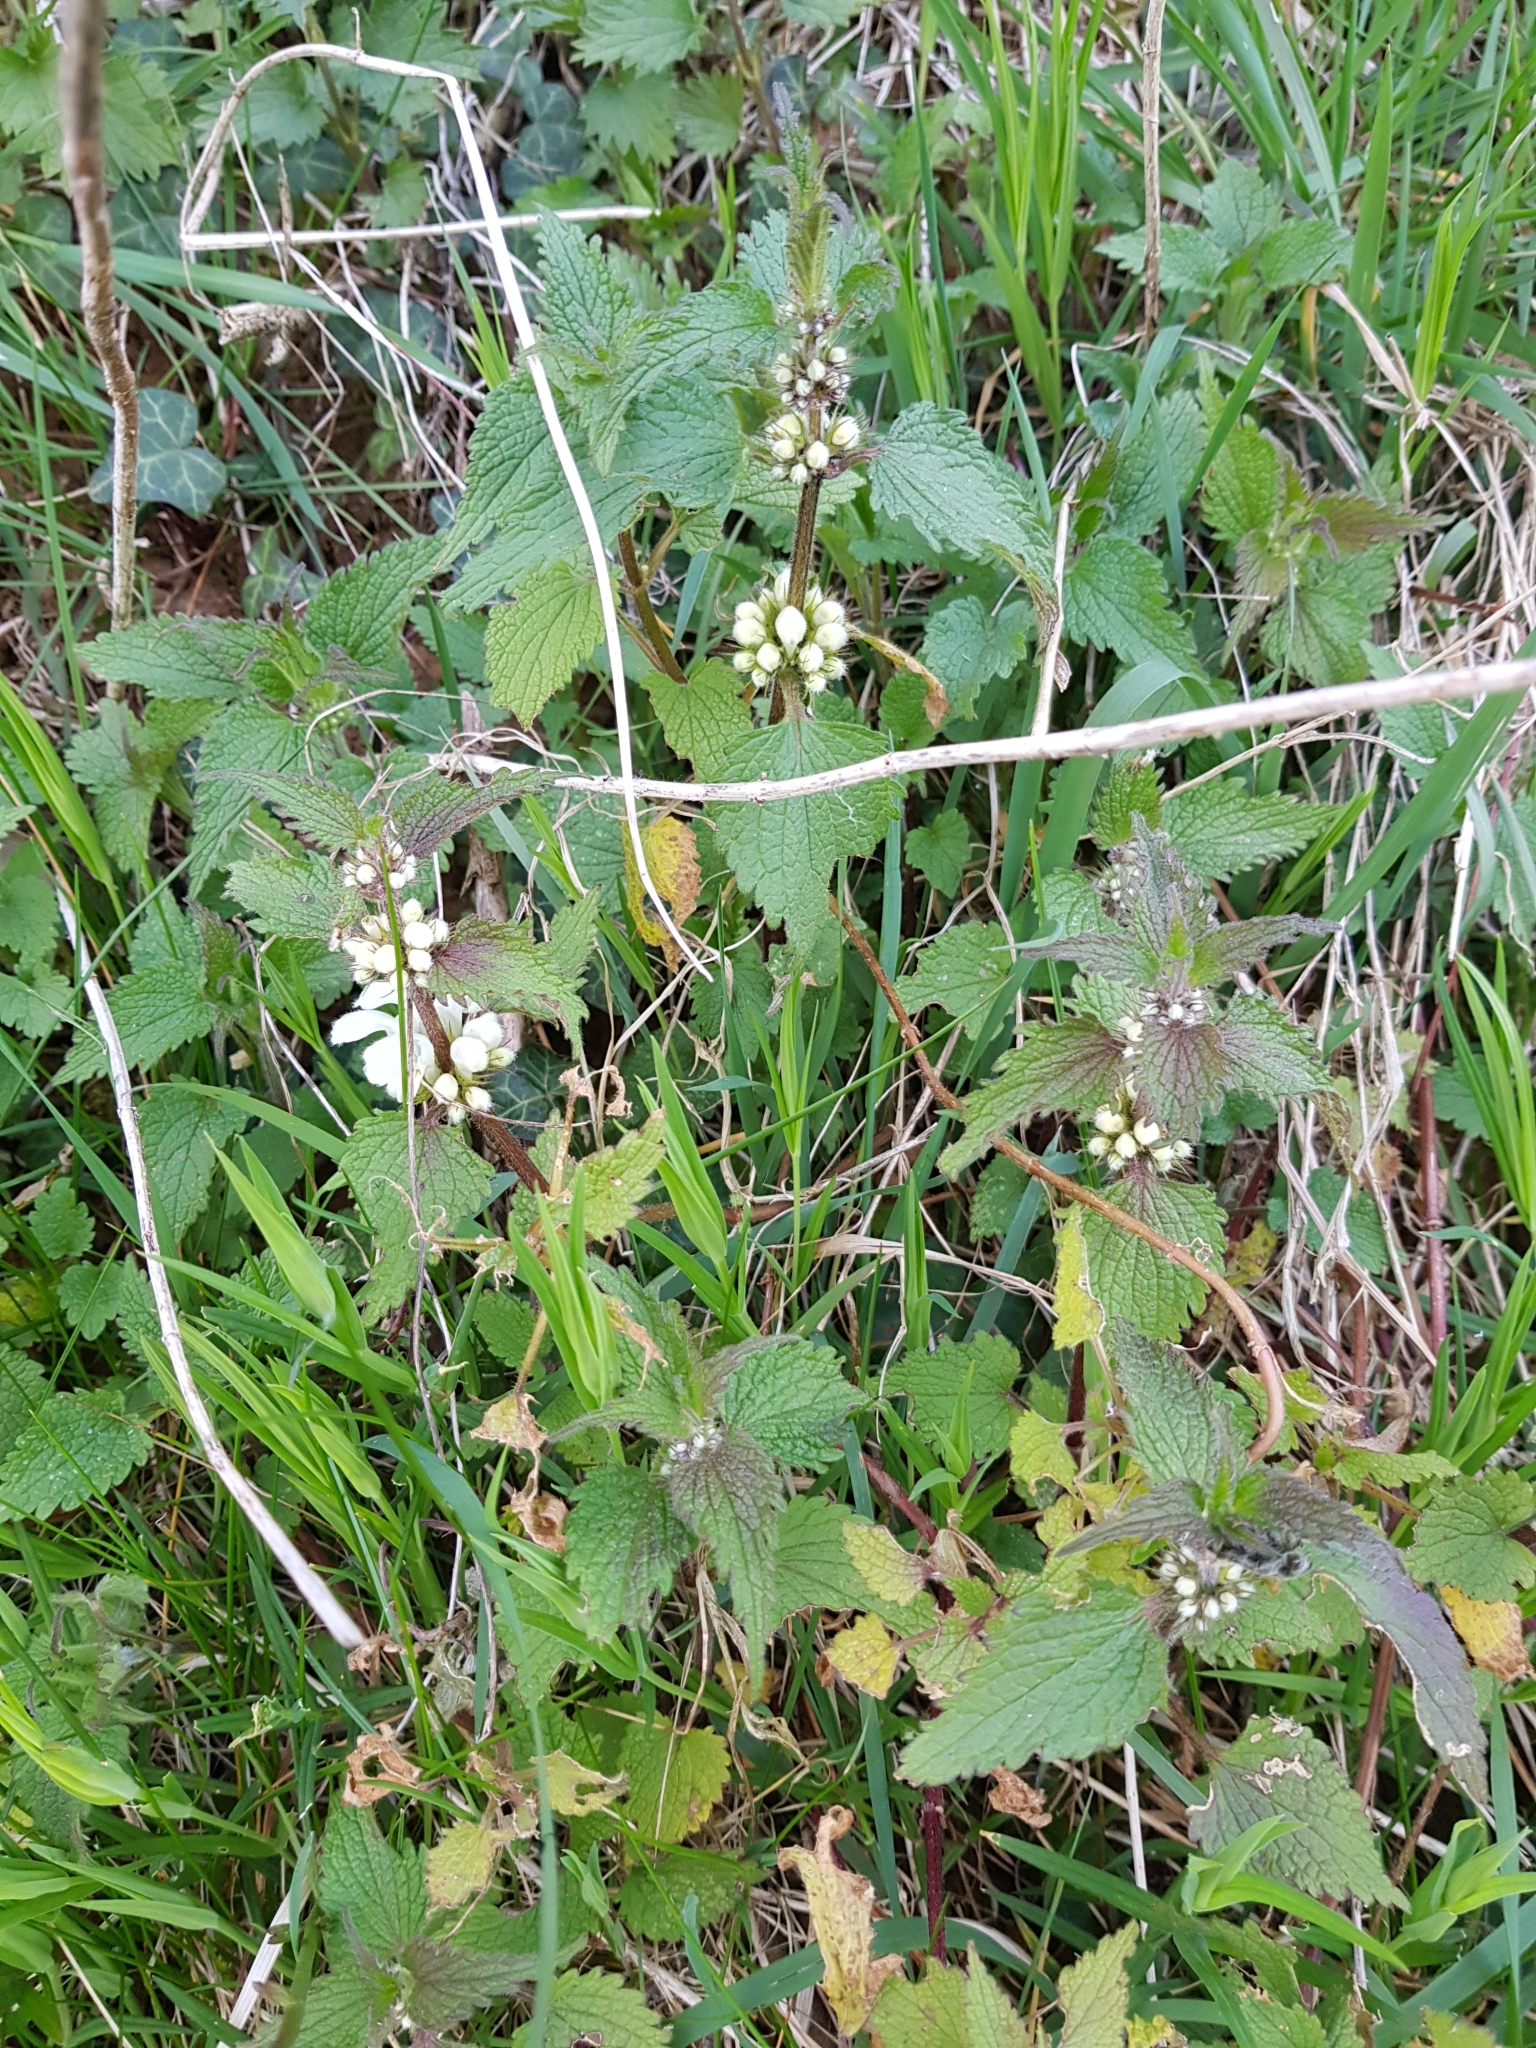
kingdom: Plantae
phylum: Tracheophyta
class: Magnoliopsida
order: Lamiales
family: Lamiaceae
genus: Lamium
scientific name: Lamium album
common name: White dead-nettle
